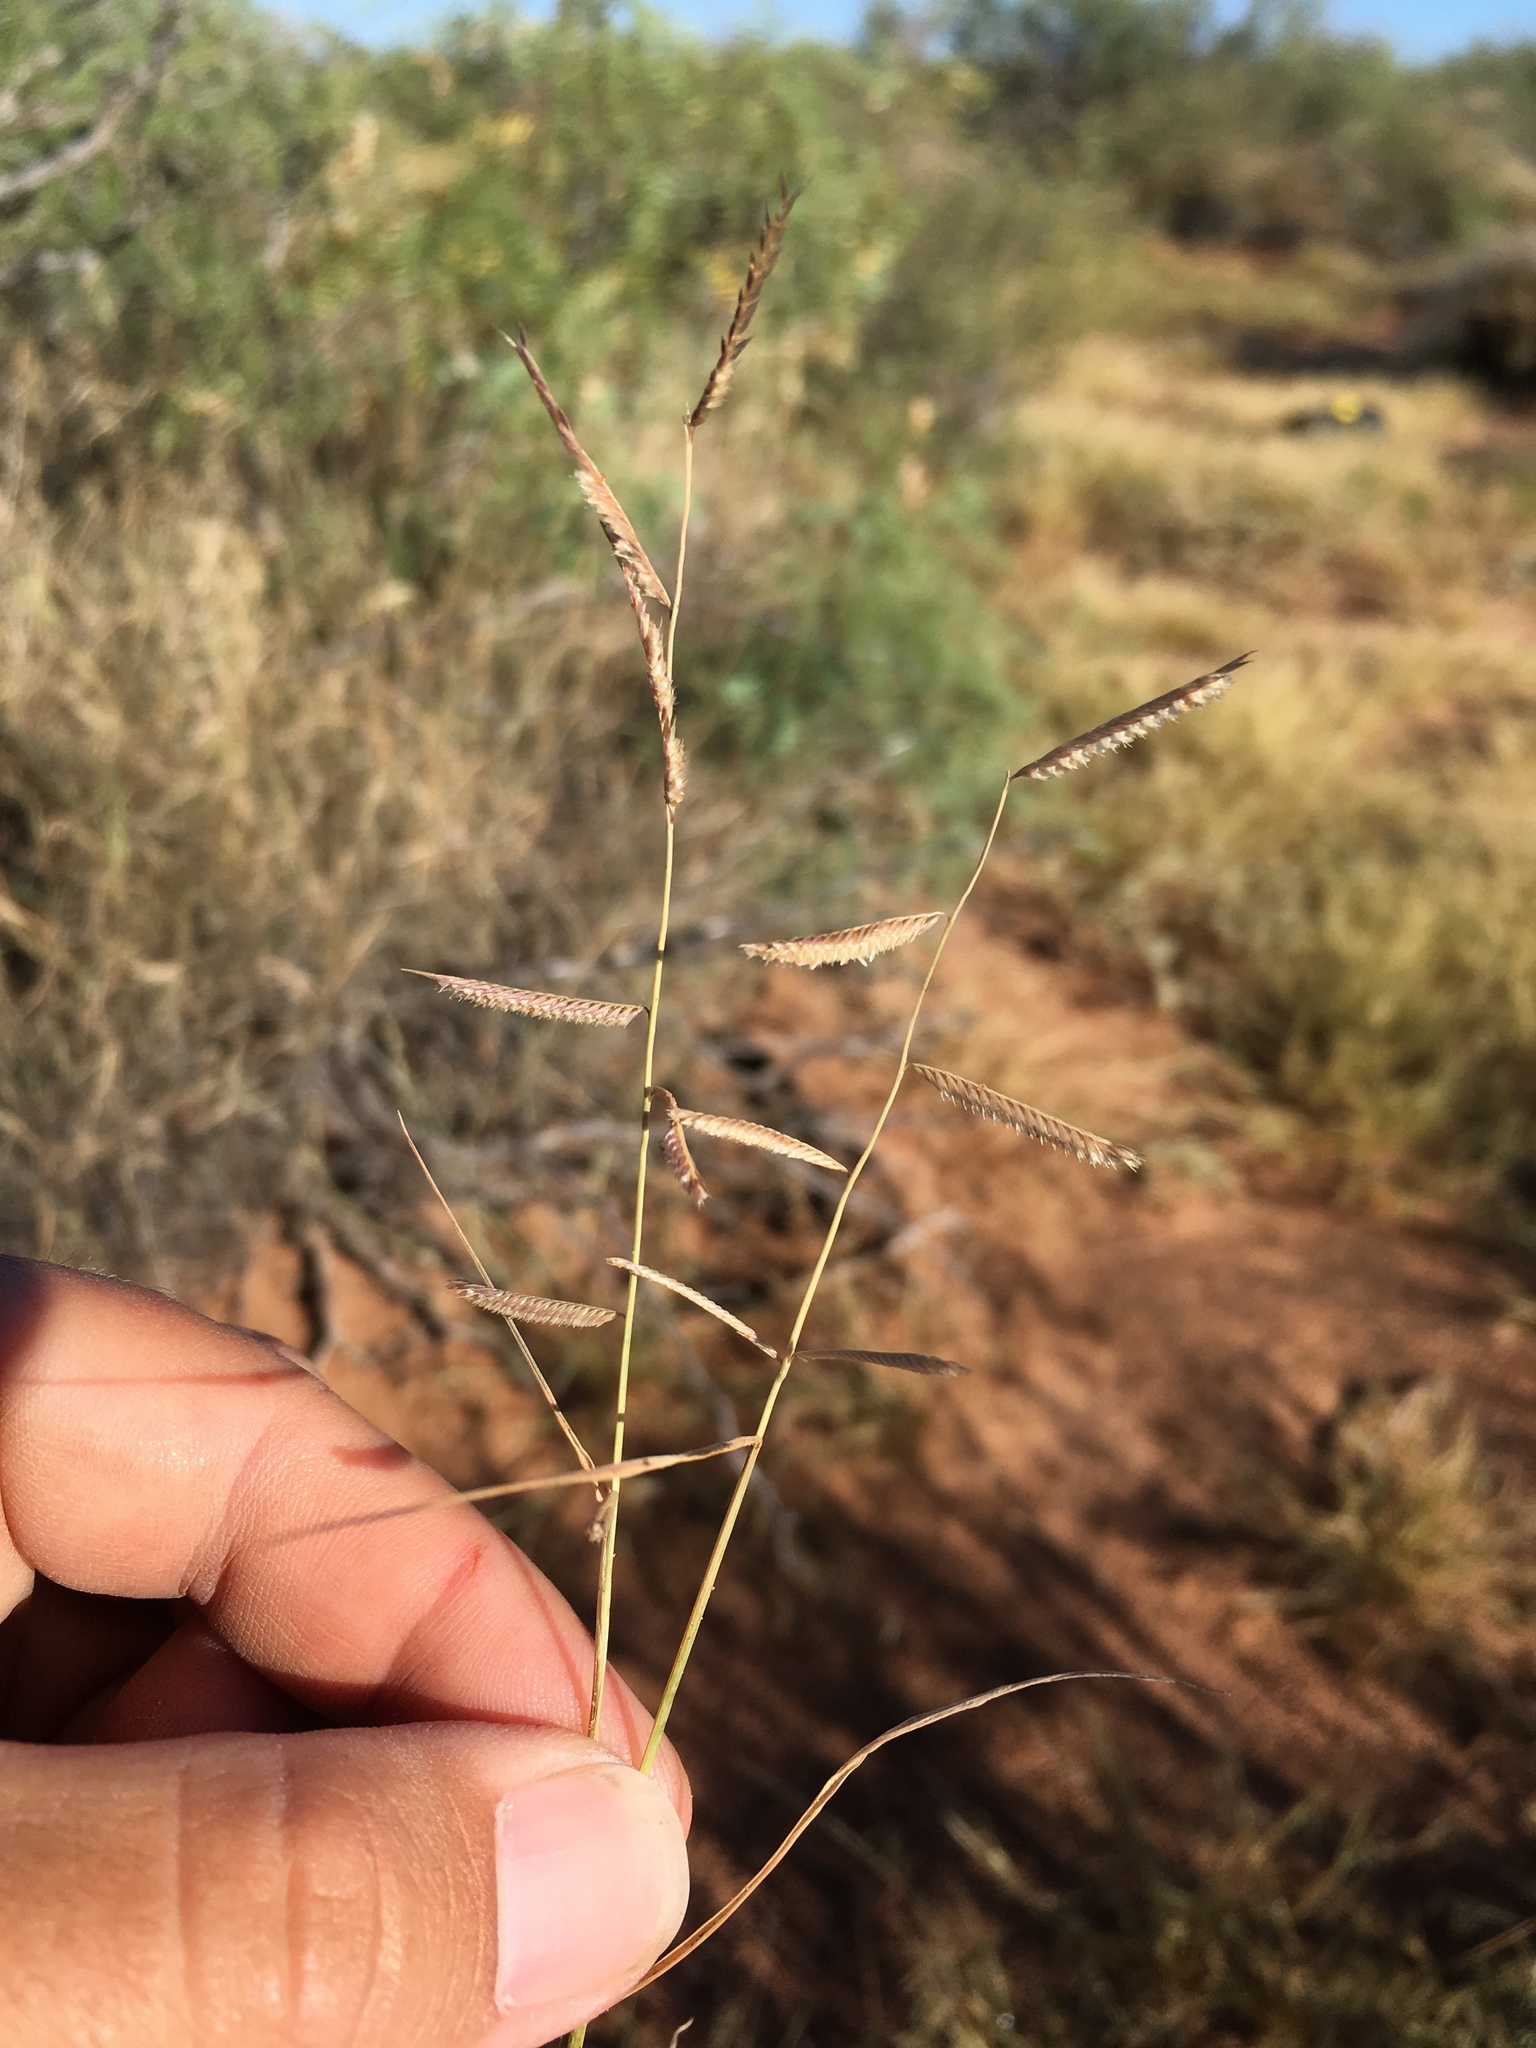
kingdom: Plantae
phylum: Tracheophyta
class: Liliopsida
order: Poales
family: Poaceae
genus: Bouteloua
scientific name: Bouteloua barbata
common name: Six-weeks grama
